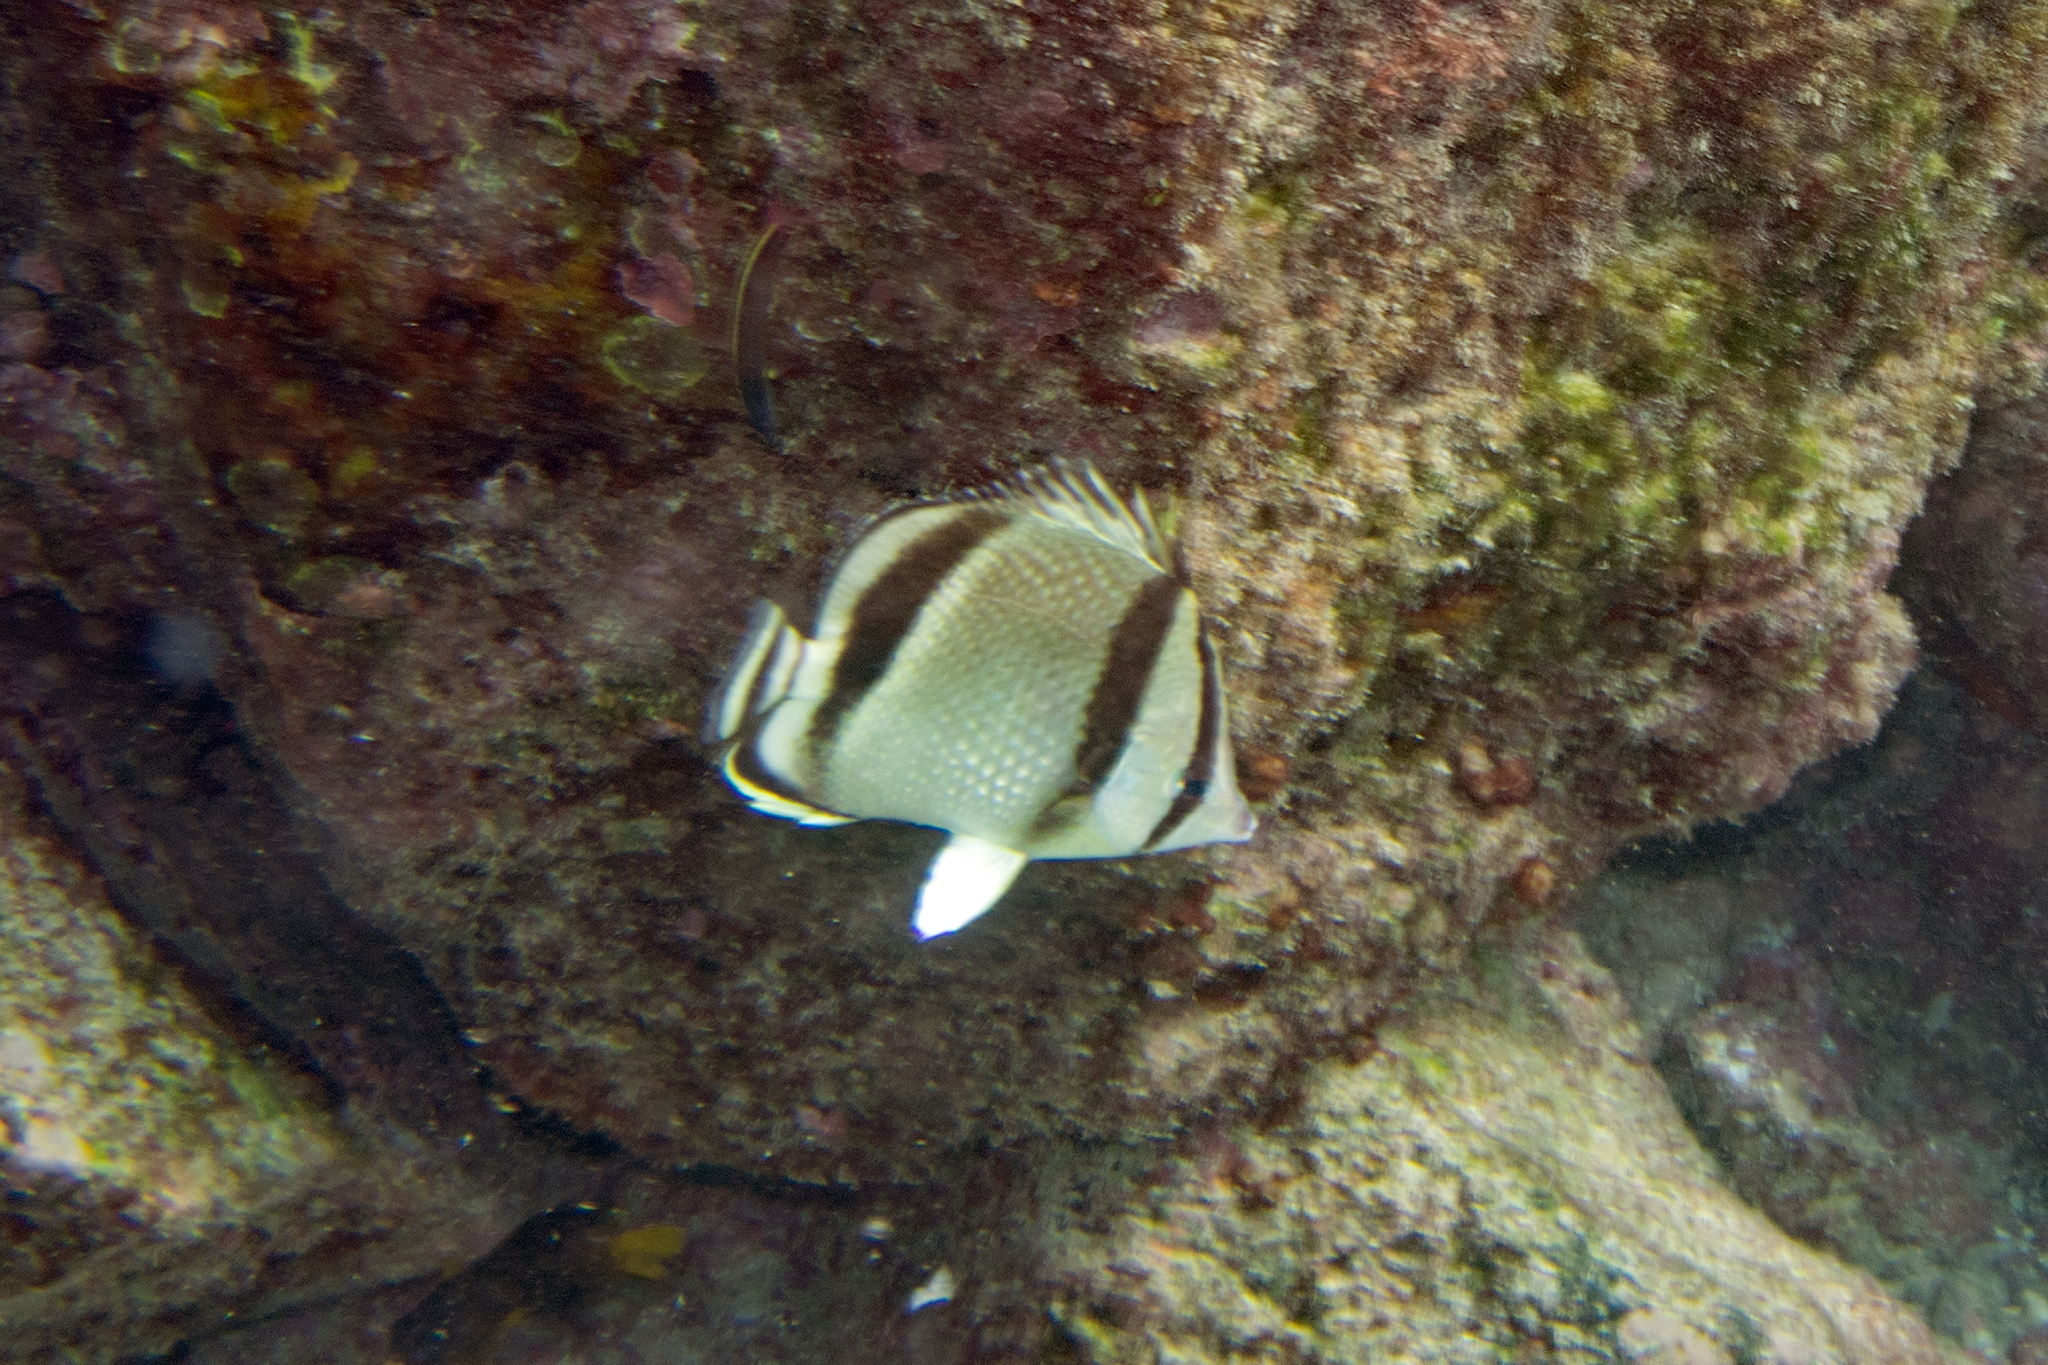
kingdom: Animalia
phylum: Chordata
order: Perciformes
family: Chaetodontidae
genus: Chaetodon
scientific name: Chaetodon humeralis
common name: Threebanded butterflyfish
